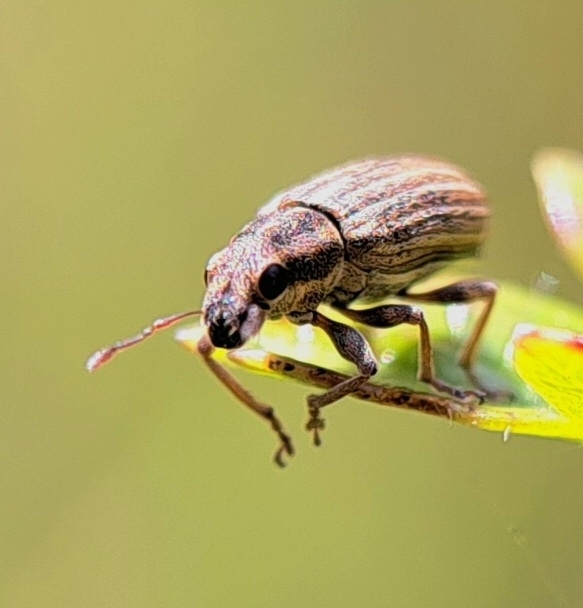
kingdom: Animalia
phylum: Arthropoda
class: Insecta
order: Coleoptera
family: Curculionidae
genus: Sitona
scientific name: Sitona lineatus
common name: Weevil
